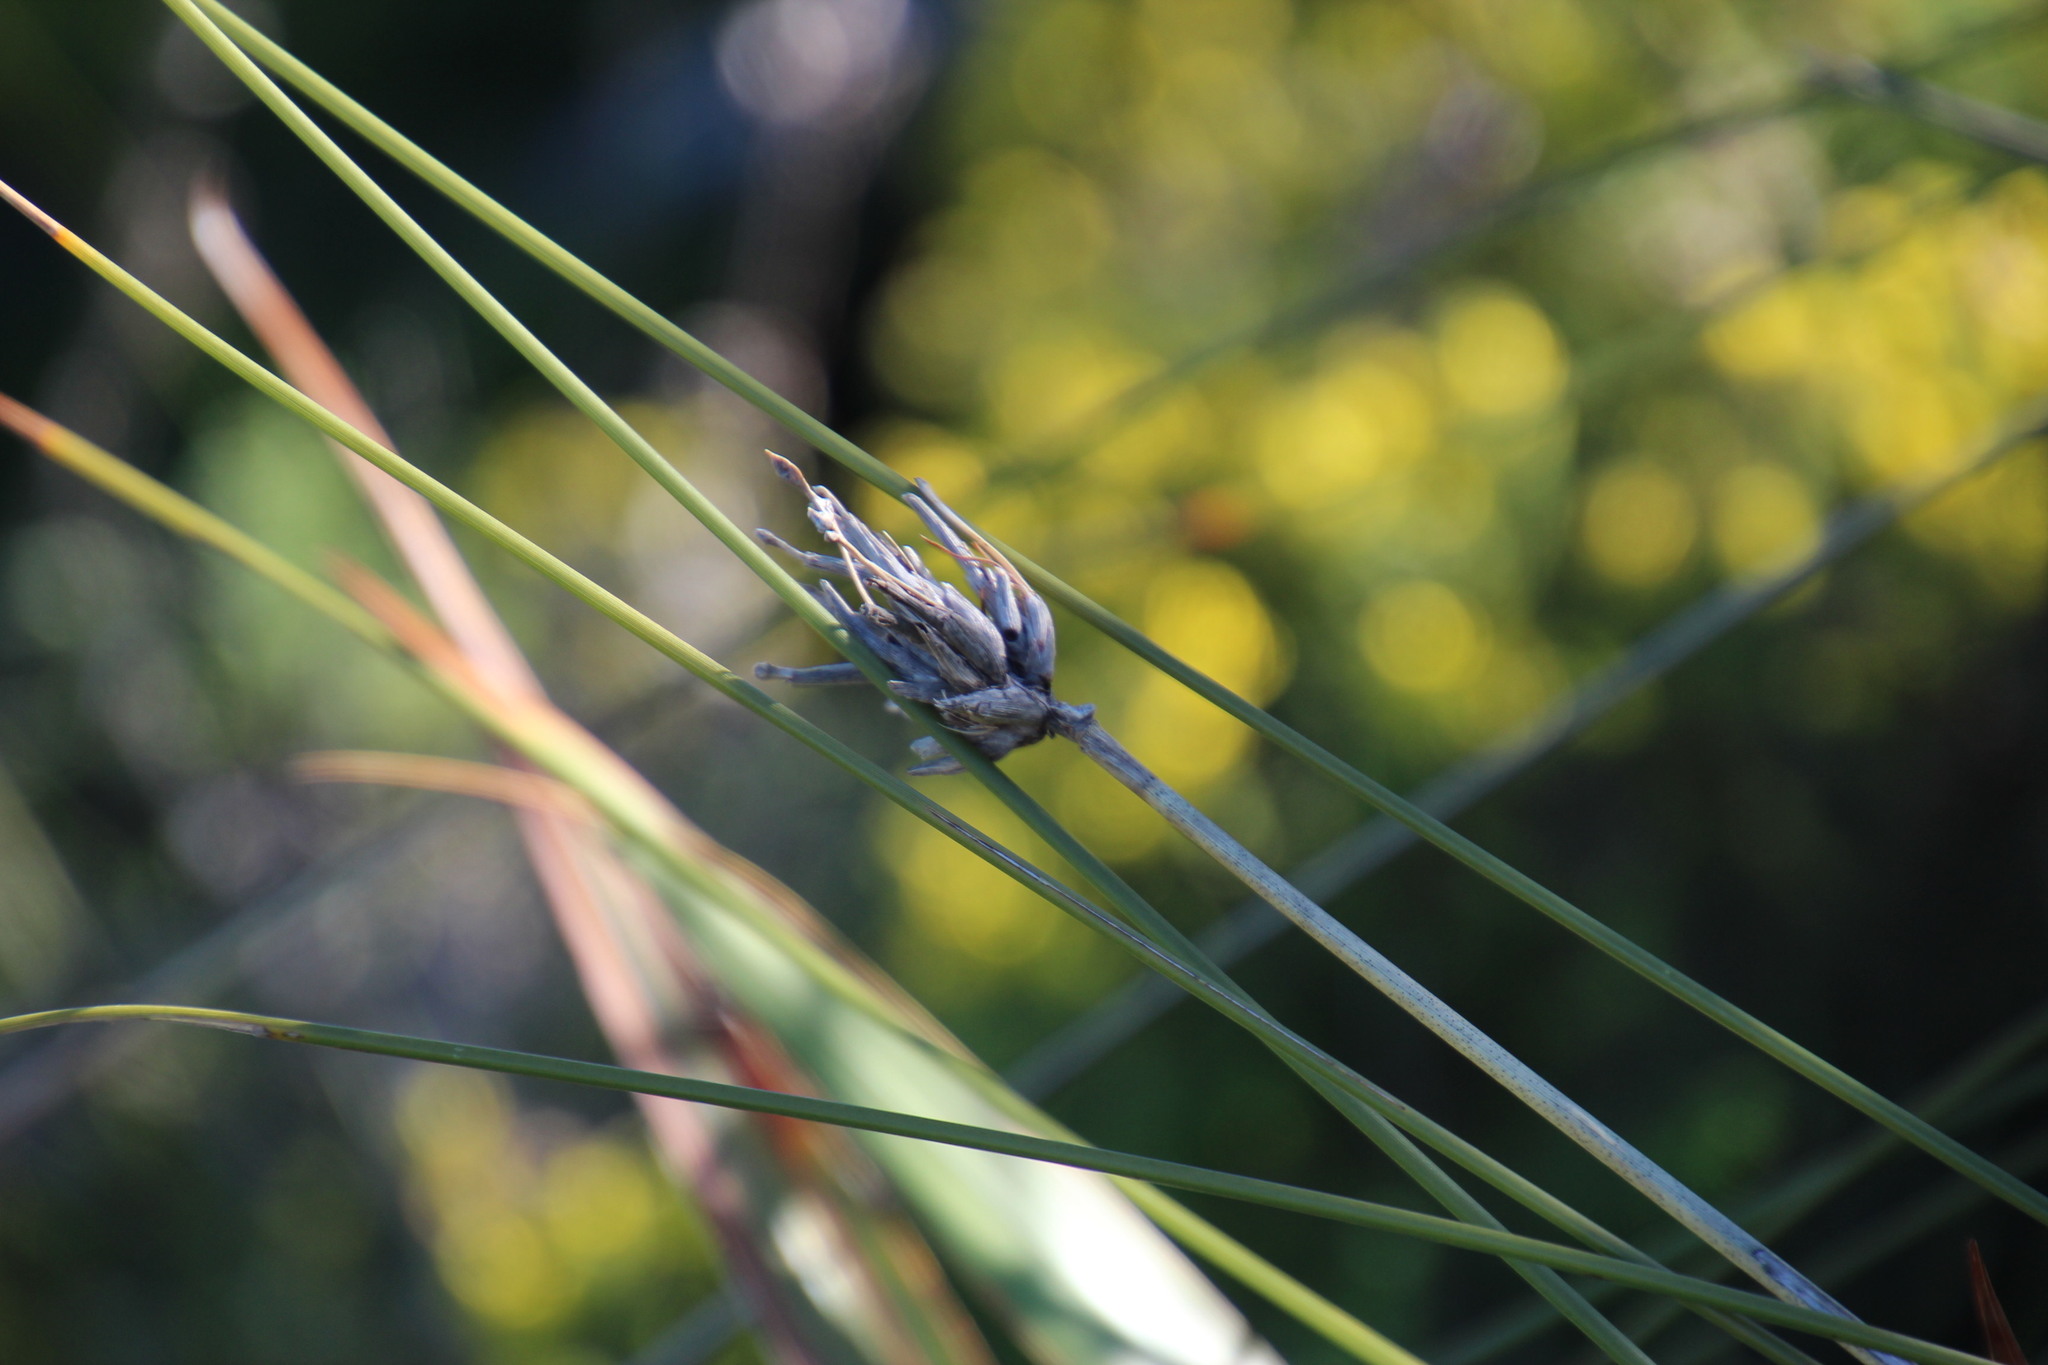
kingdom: Plantae
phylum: Tracheophyta
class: Liliopsida
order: Asparagales
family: Iridaceae
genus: Bobartia
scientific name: Bobartia indica
